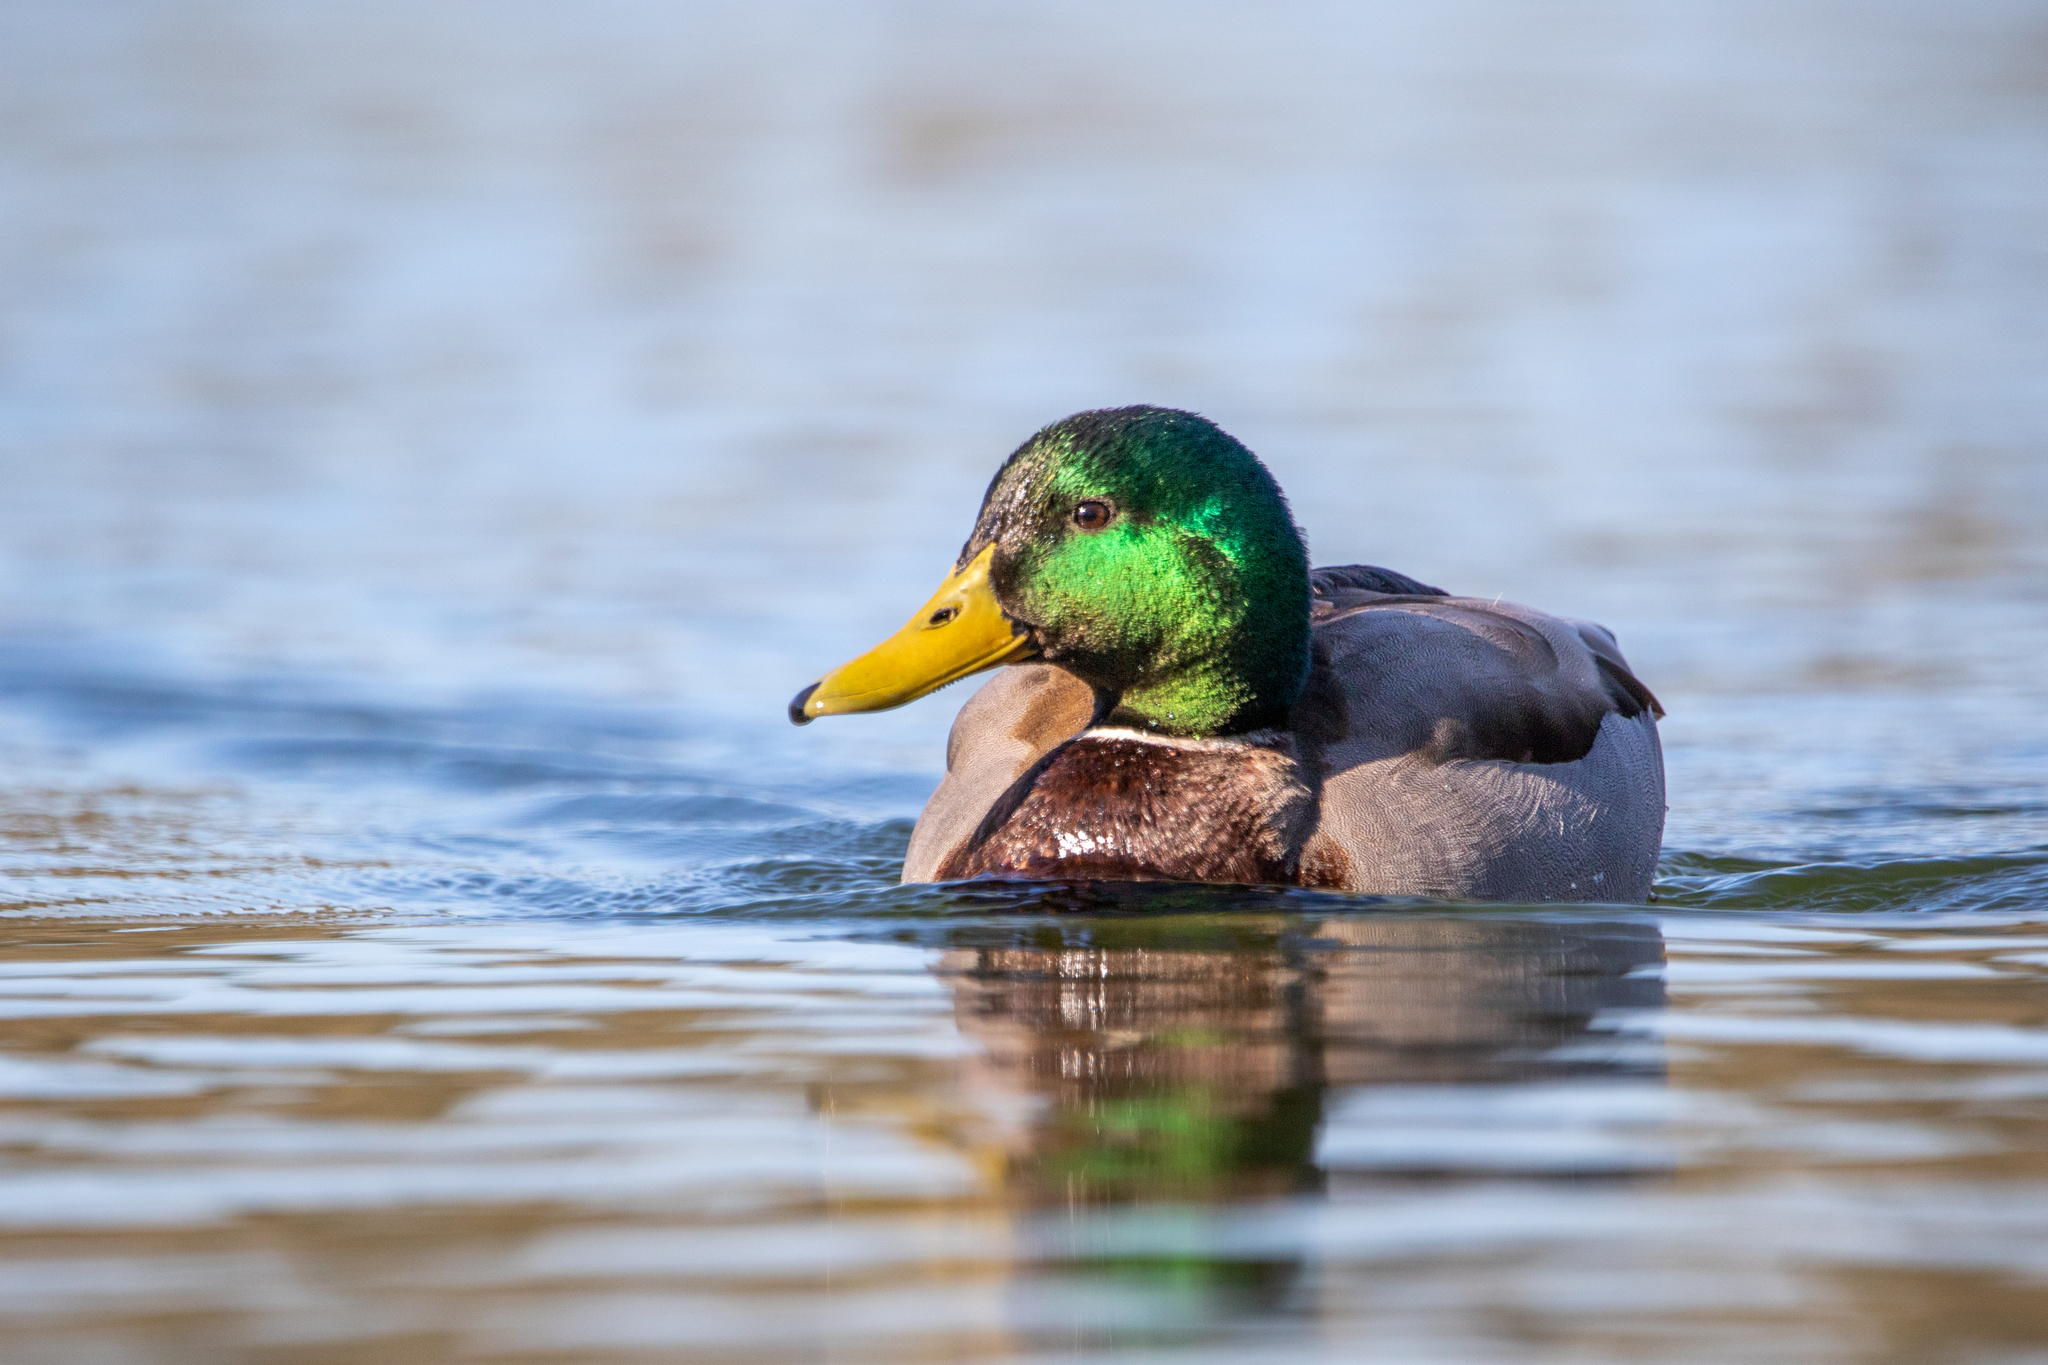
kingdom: Animalia
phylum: Chordata
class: Aves
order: Anseriformes
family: Anatidae
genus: Anas
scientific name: Anas platyrhynchos
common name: Mallard
